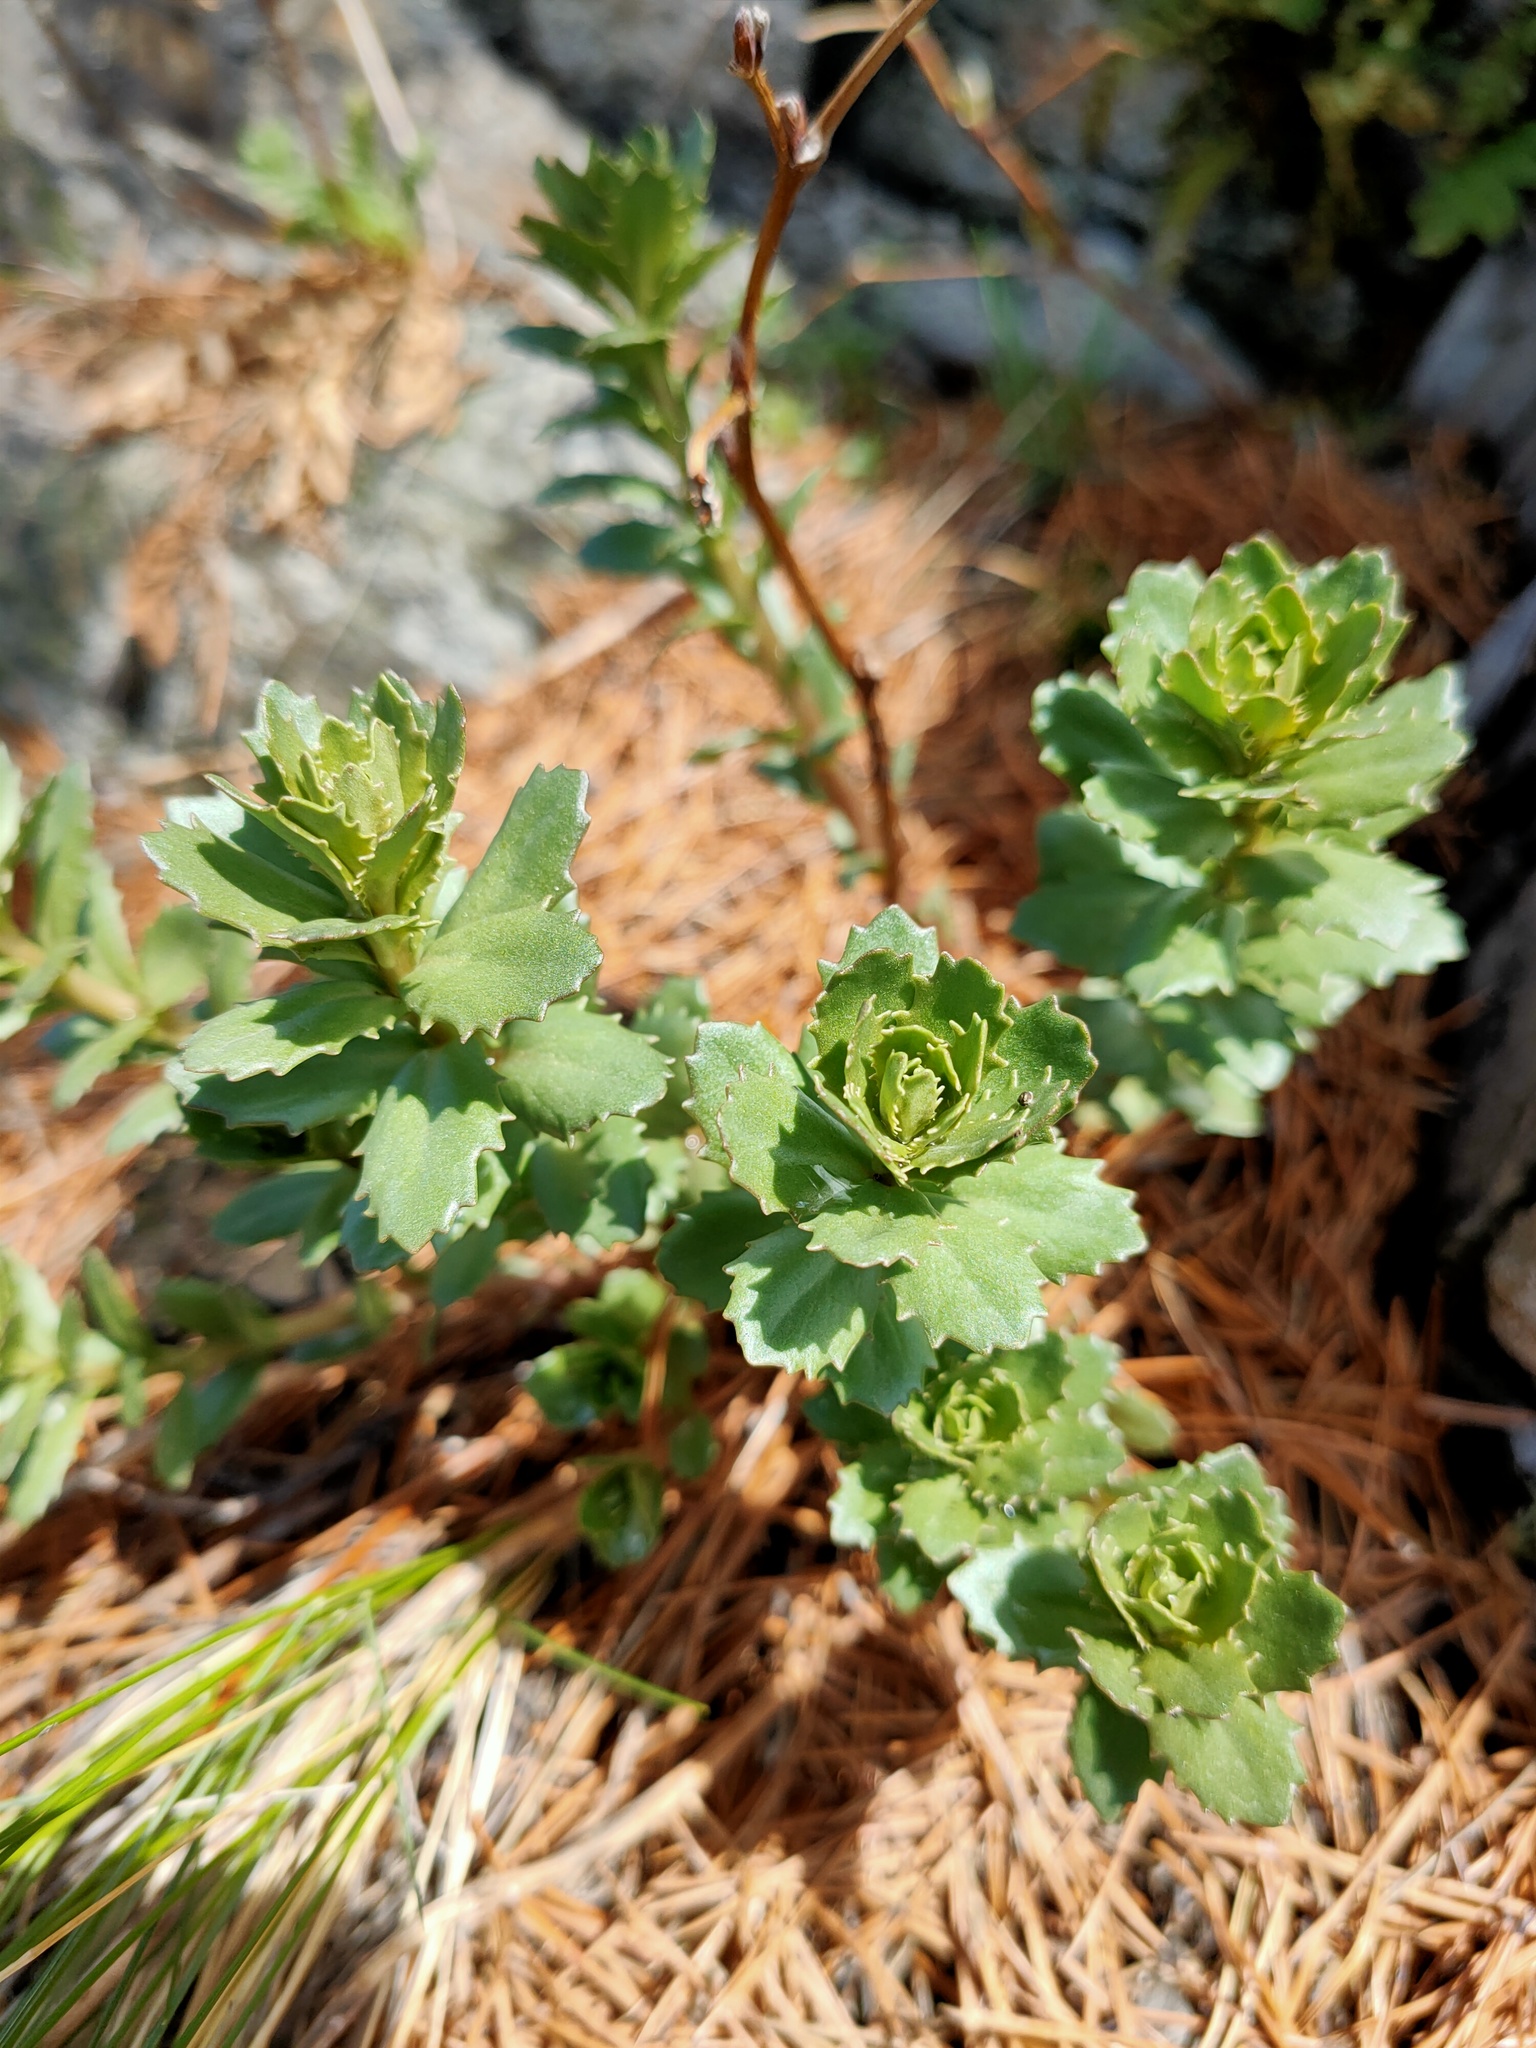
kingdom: Plantae
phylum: Tracheophyta
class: Magnoliopsida
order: Saxifragales
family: Crassulaceae
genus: Hylotelephium
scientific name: Hylotelephium telephium
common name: Live-forever
